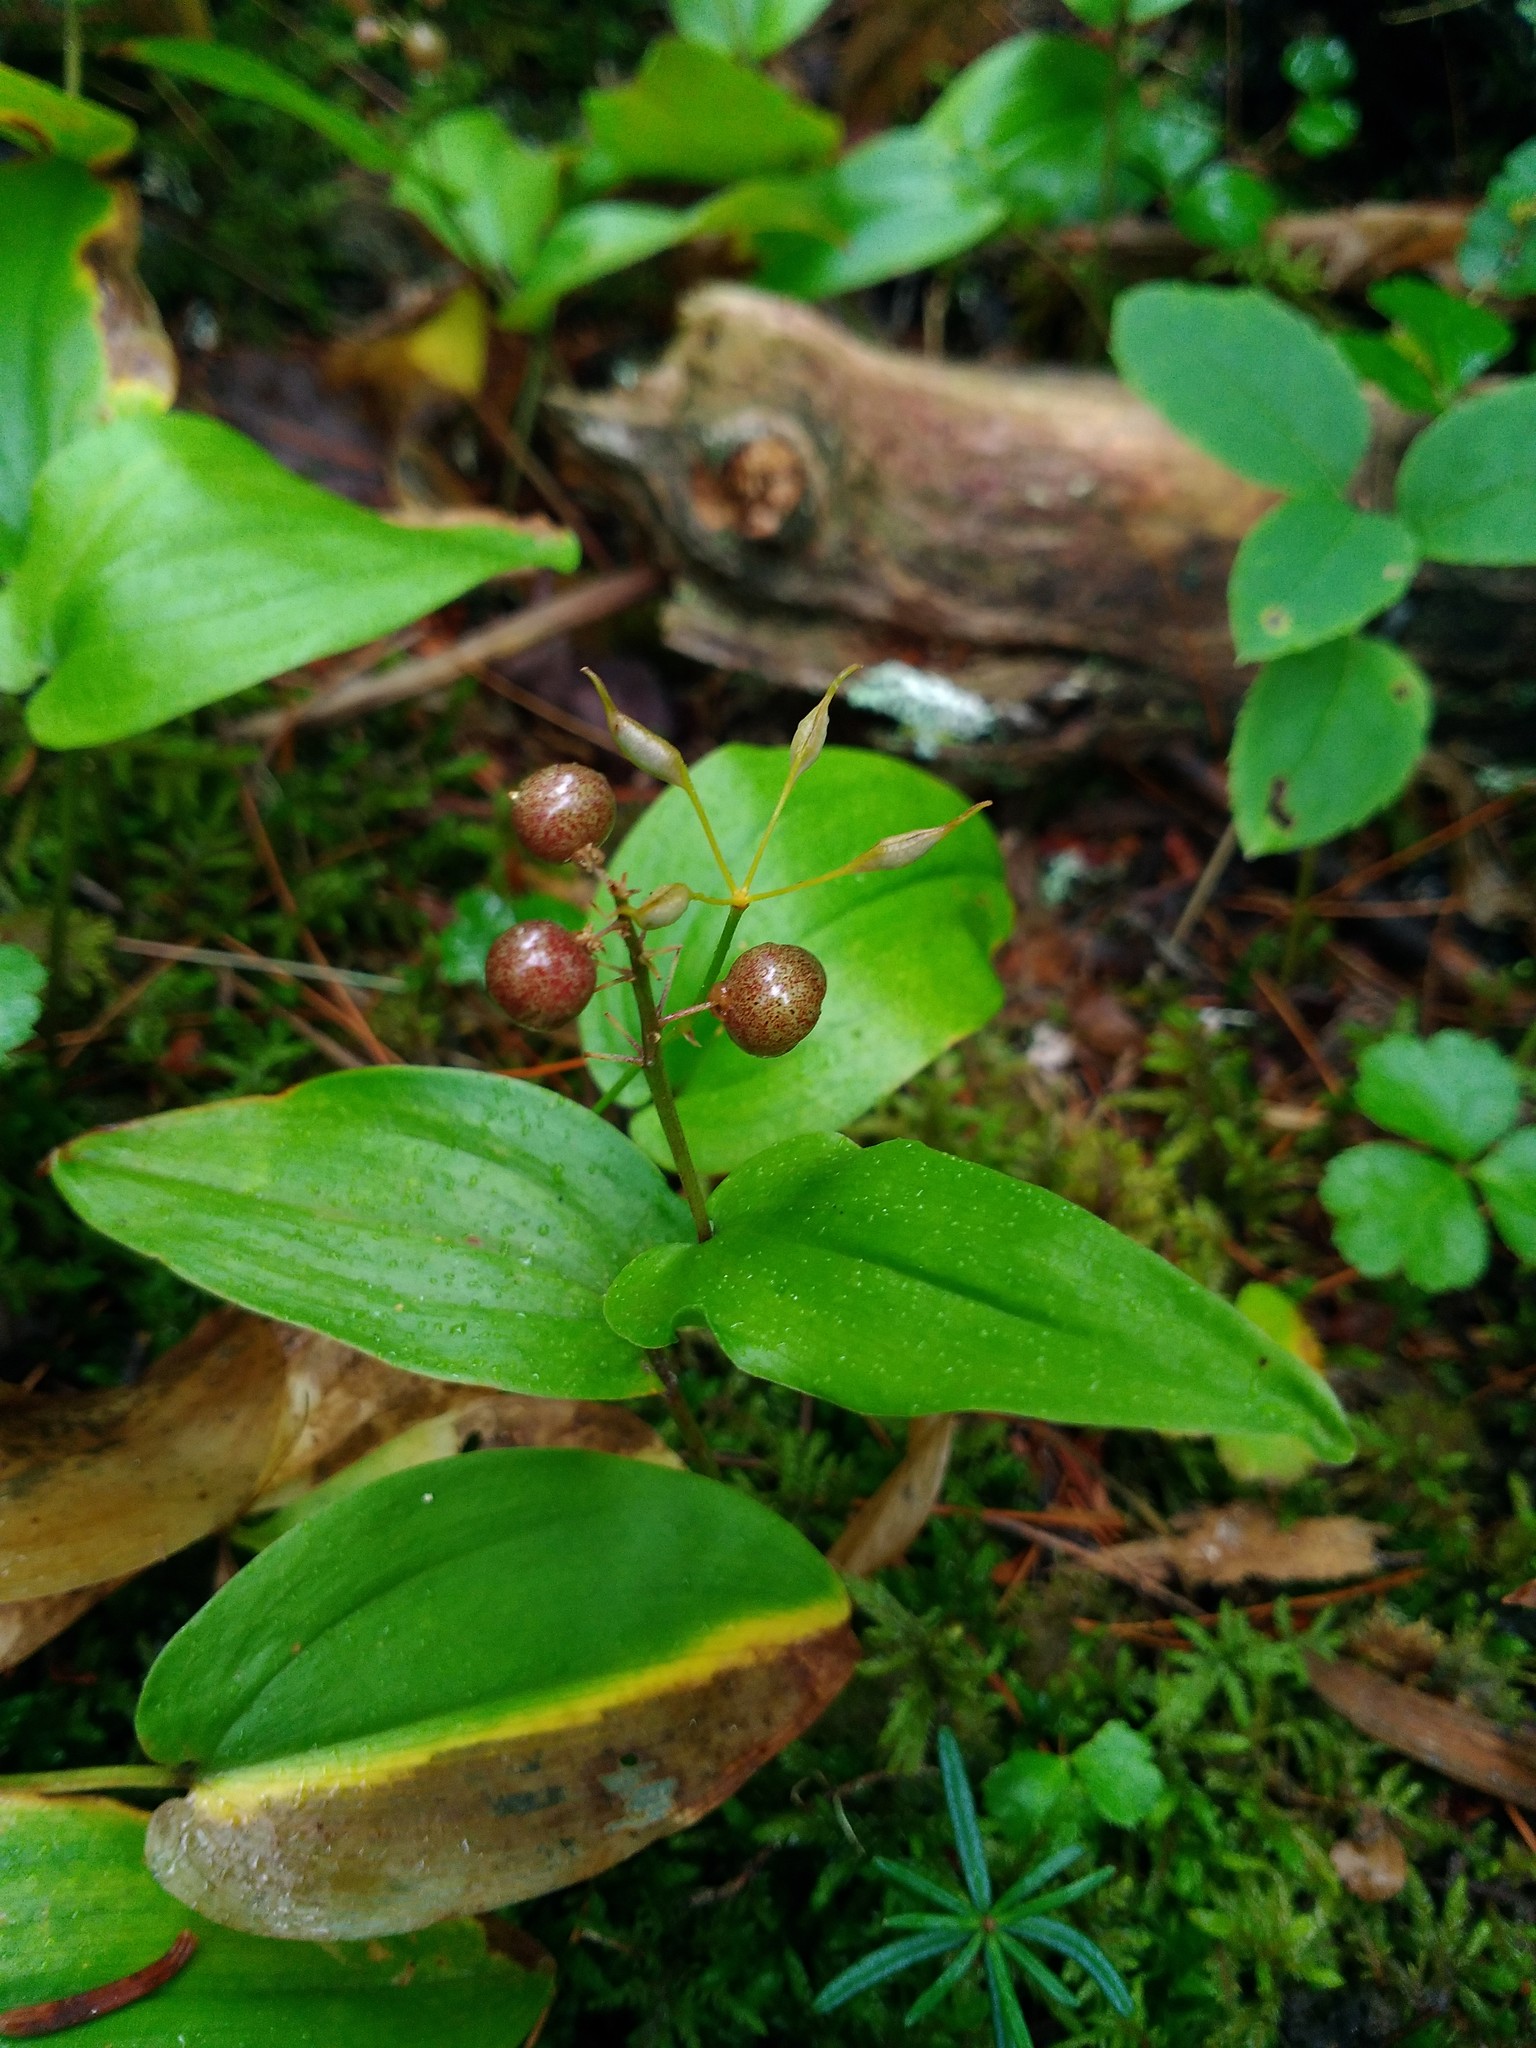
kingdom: Plantae
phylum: Tracheophyta
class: Liliopsida
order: Asparagales
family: Asparagaceae
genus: Maianthemum
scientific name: Maianthemum canadense
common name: False lily-of-the-valley
